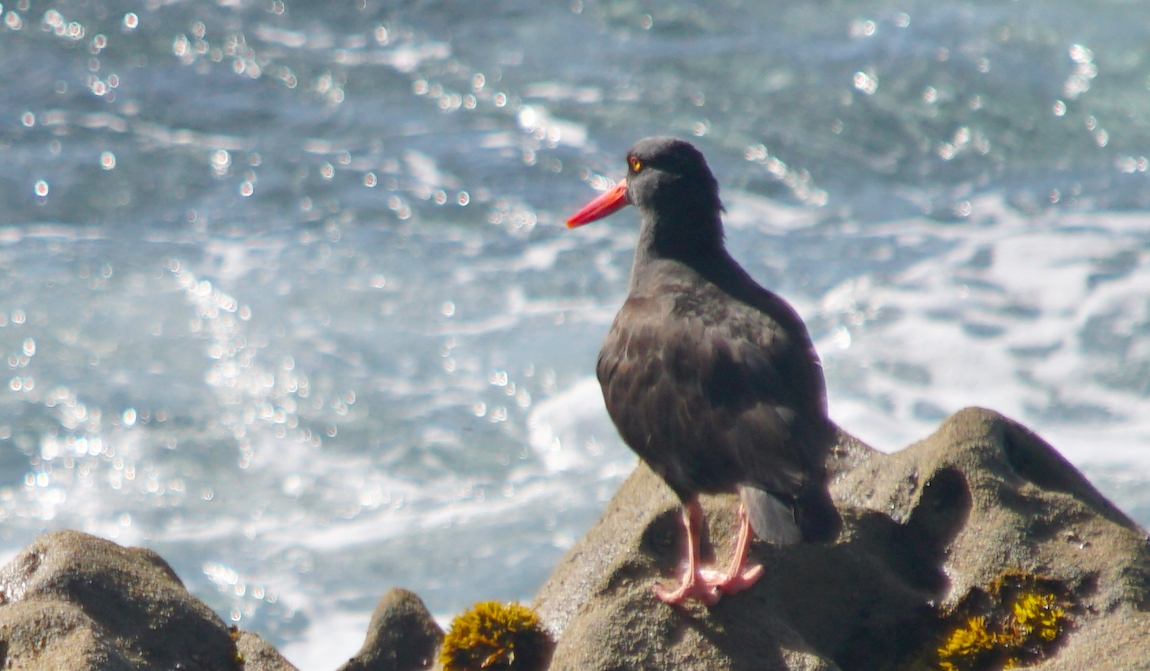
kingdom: Animalia
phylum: Chordata
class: Aves
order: Charadriiformes
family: Haematopodidae
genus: Haematopus
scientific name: Haematopus bachmani
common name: Black oystercatcher
